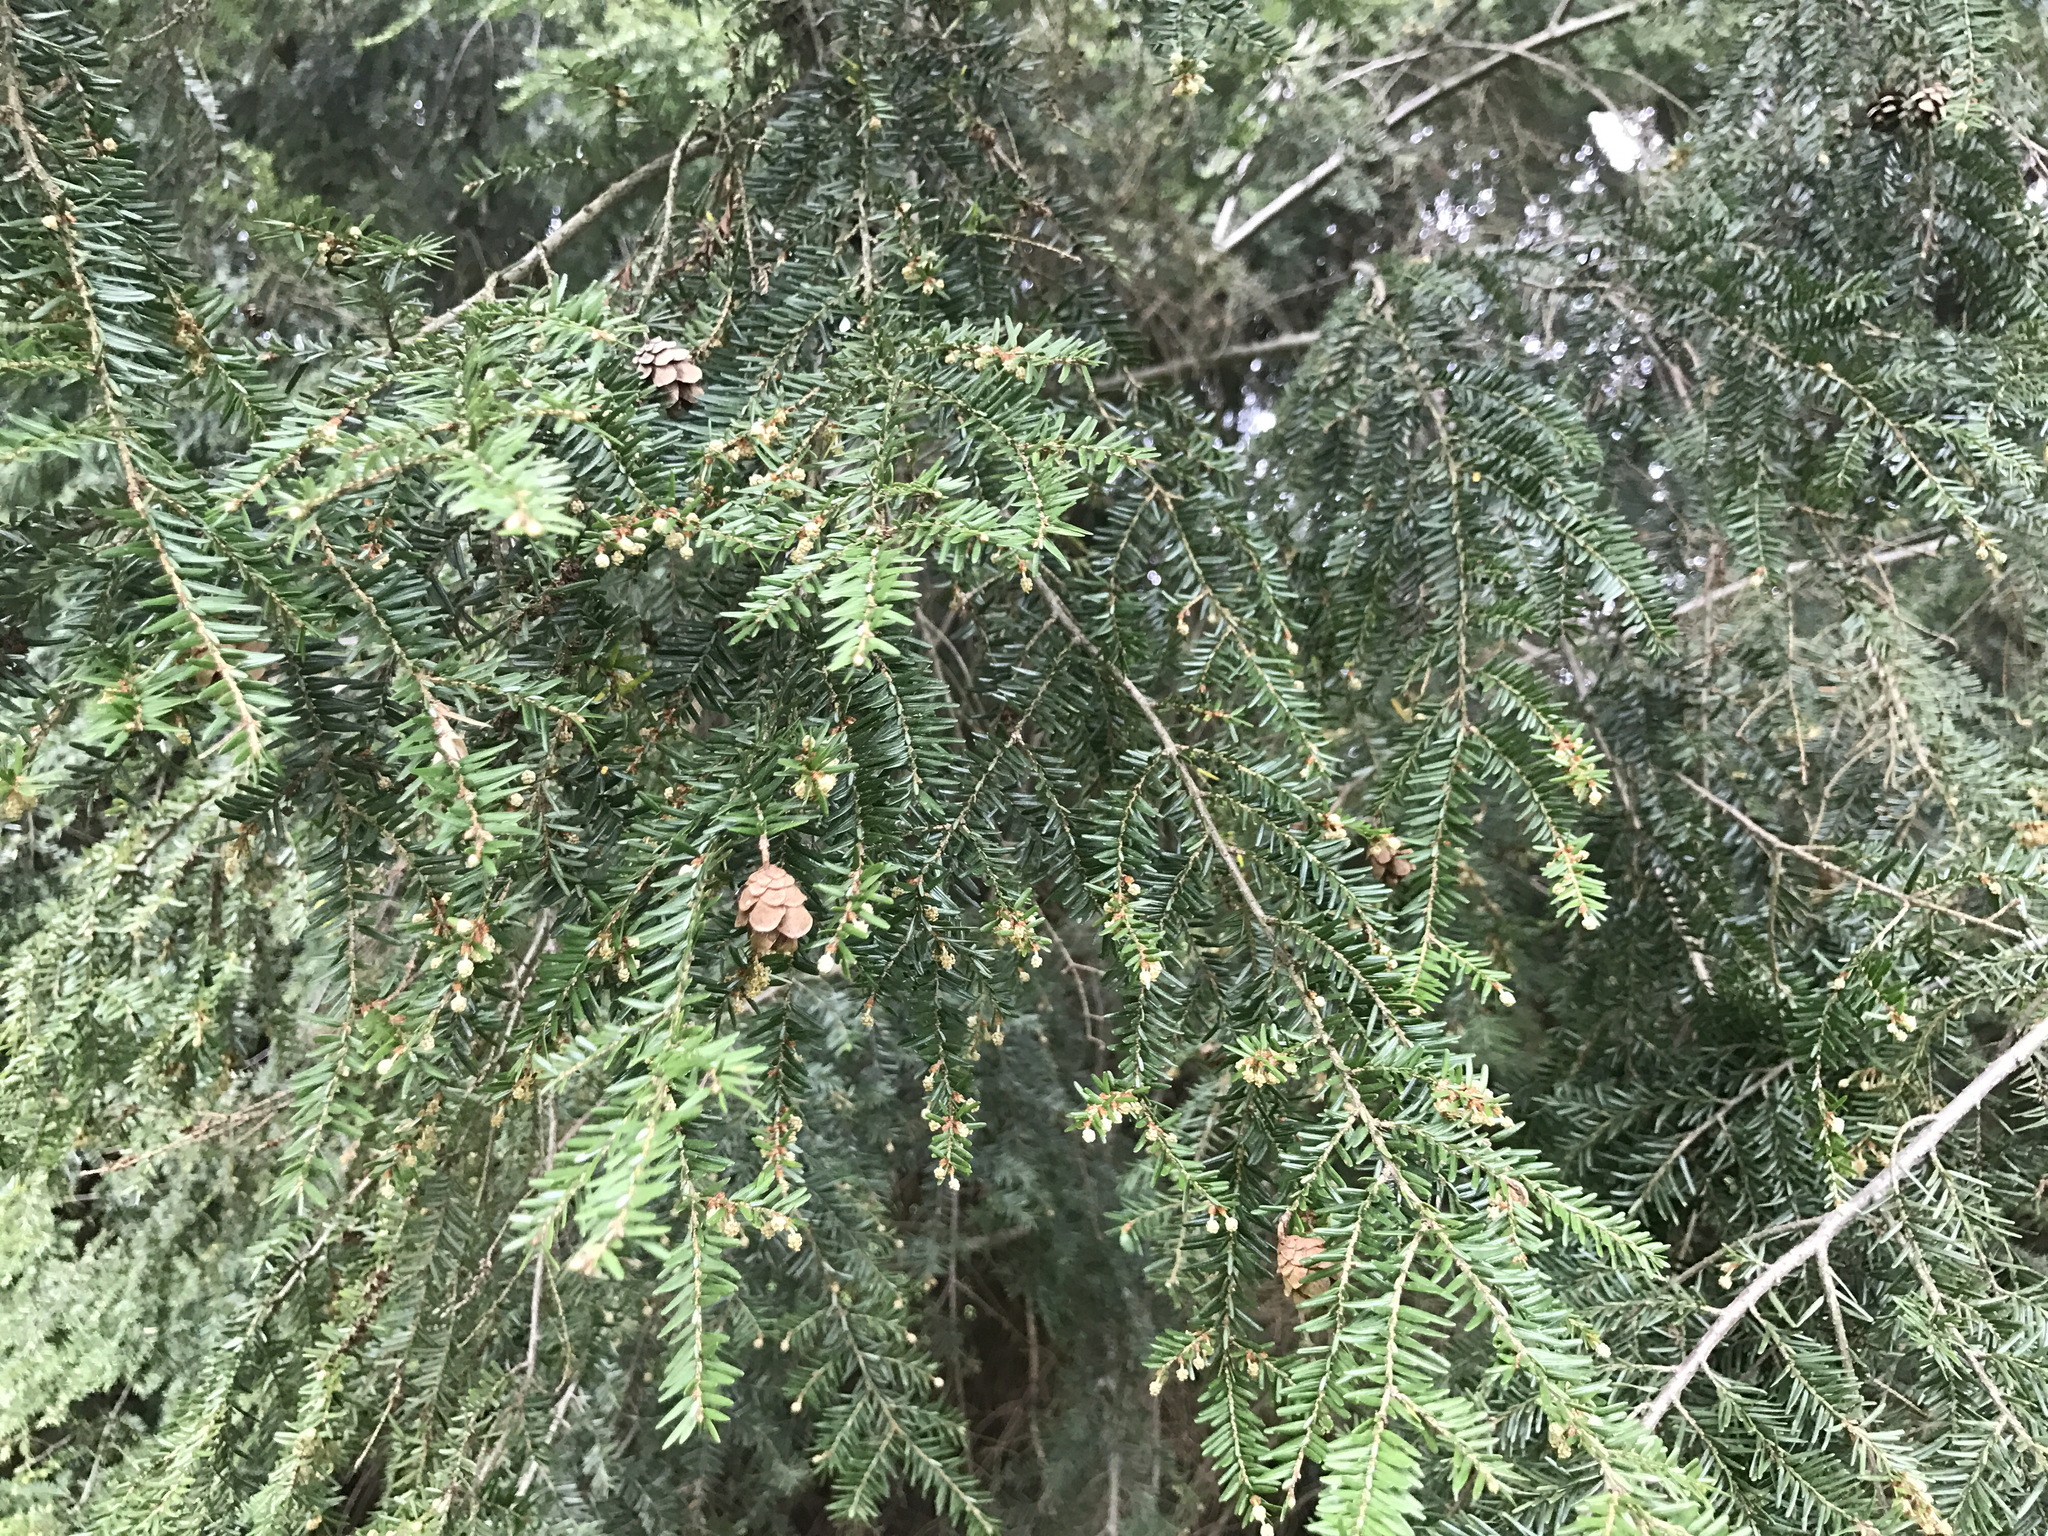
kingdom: Plantae
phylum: Tracheophyta
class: Pinopsida
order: Pinales
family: Pinaceae
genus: Tsuga
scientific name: Tsuga canadensis
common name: Eastern hemlock
